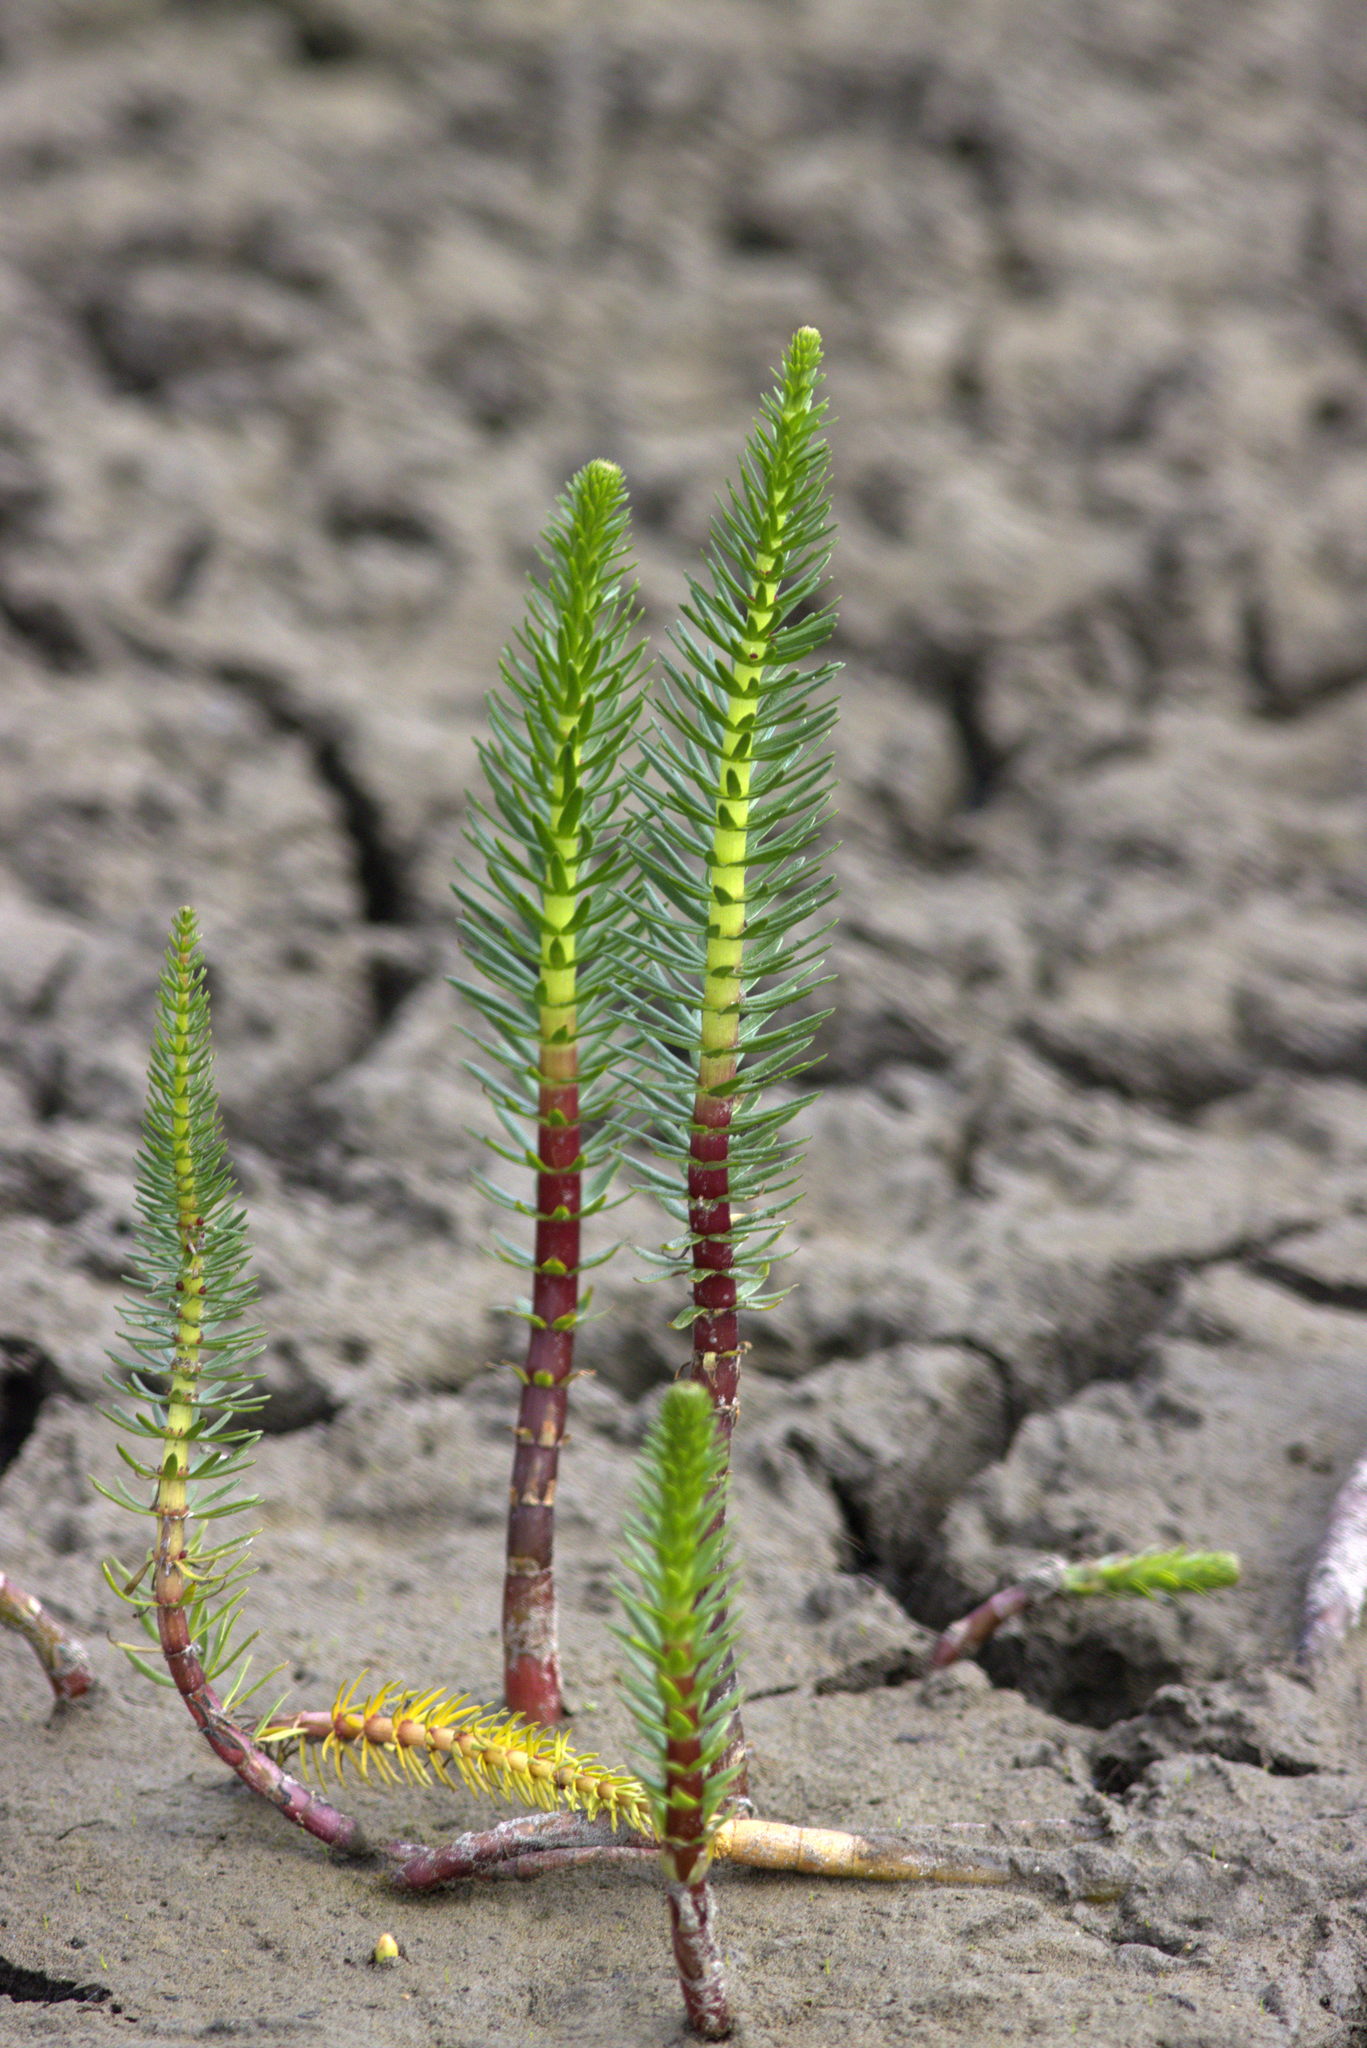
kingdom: Plantae
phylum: Tracheophyta
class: Magnoliopsida
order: Lamiales
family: Plantaginaceae
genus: Hippuris
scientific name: Hippuris vulgaris
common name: Mare's-tail
